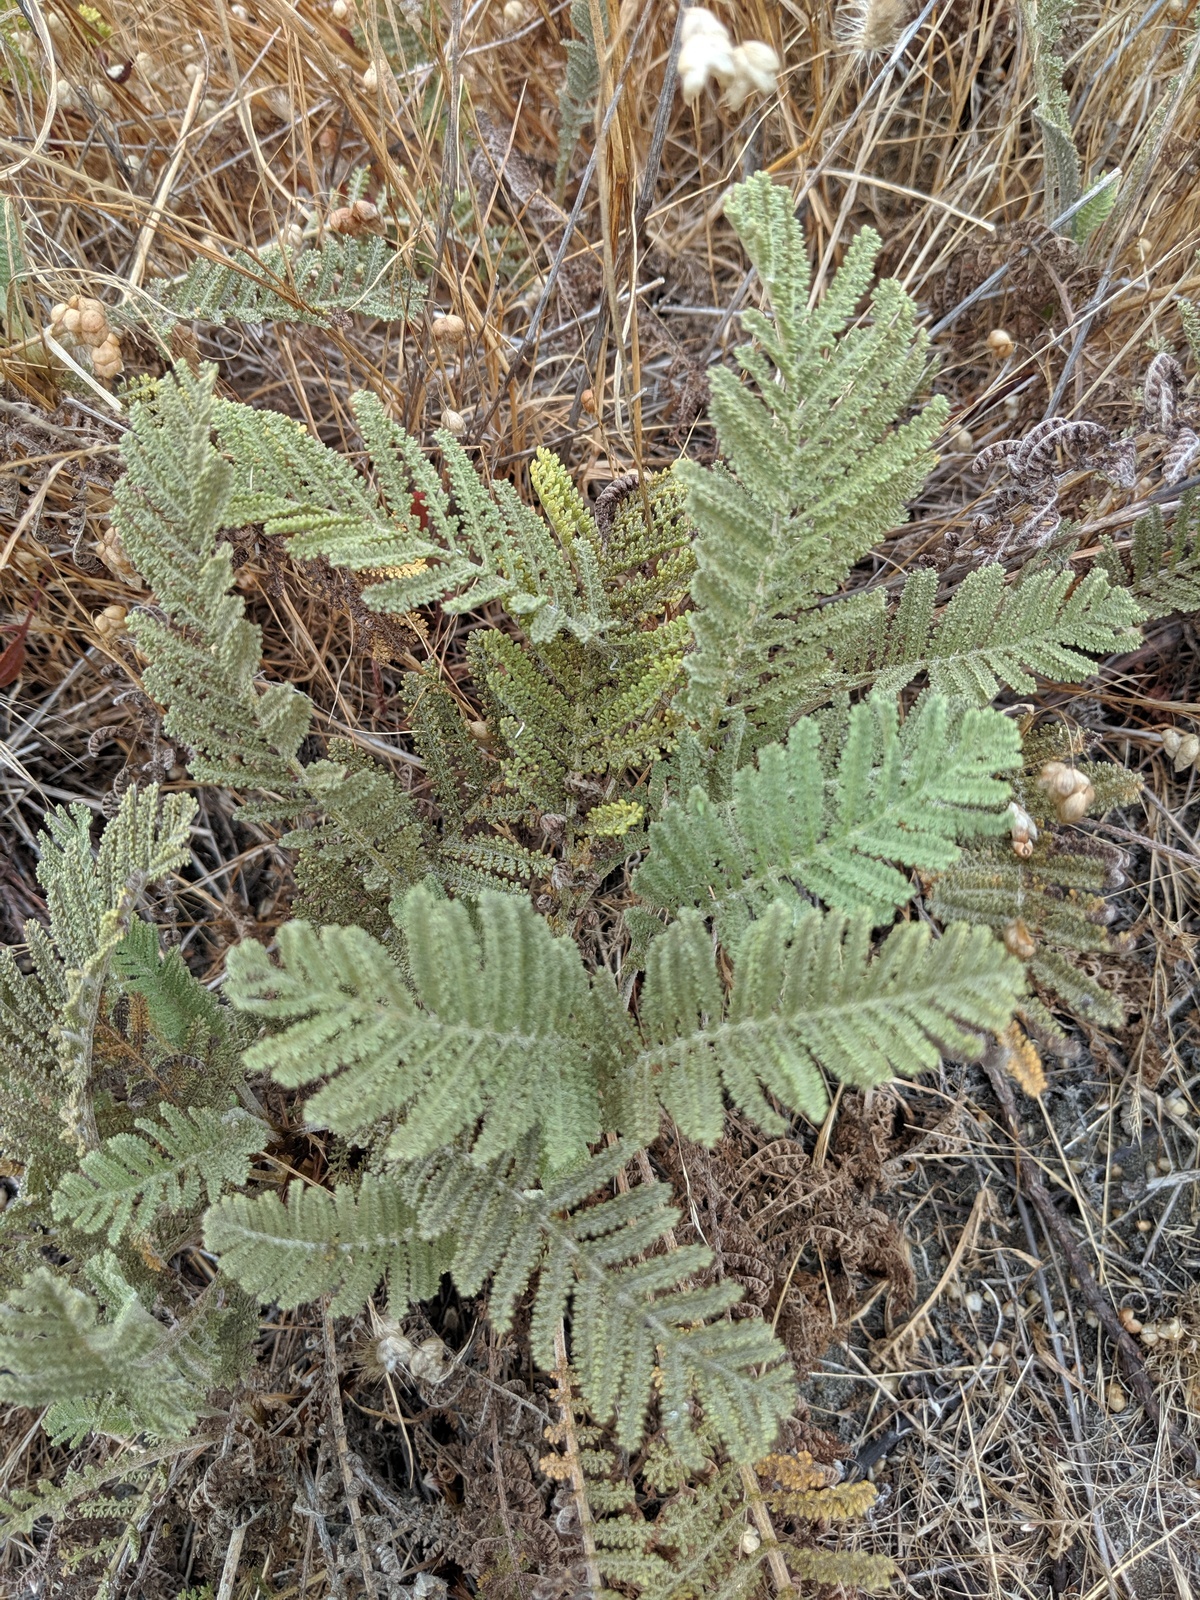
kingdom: Plantae
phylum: Tracheophyta
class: Magnoliopsida
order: Asterales
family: Asteraceae
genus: Tanacetum
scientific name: Tanacetum bipinnatum
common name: Dwarf tansy
